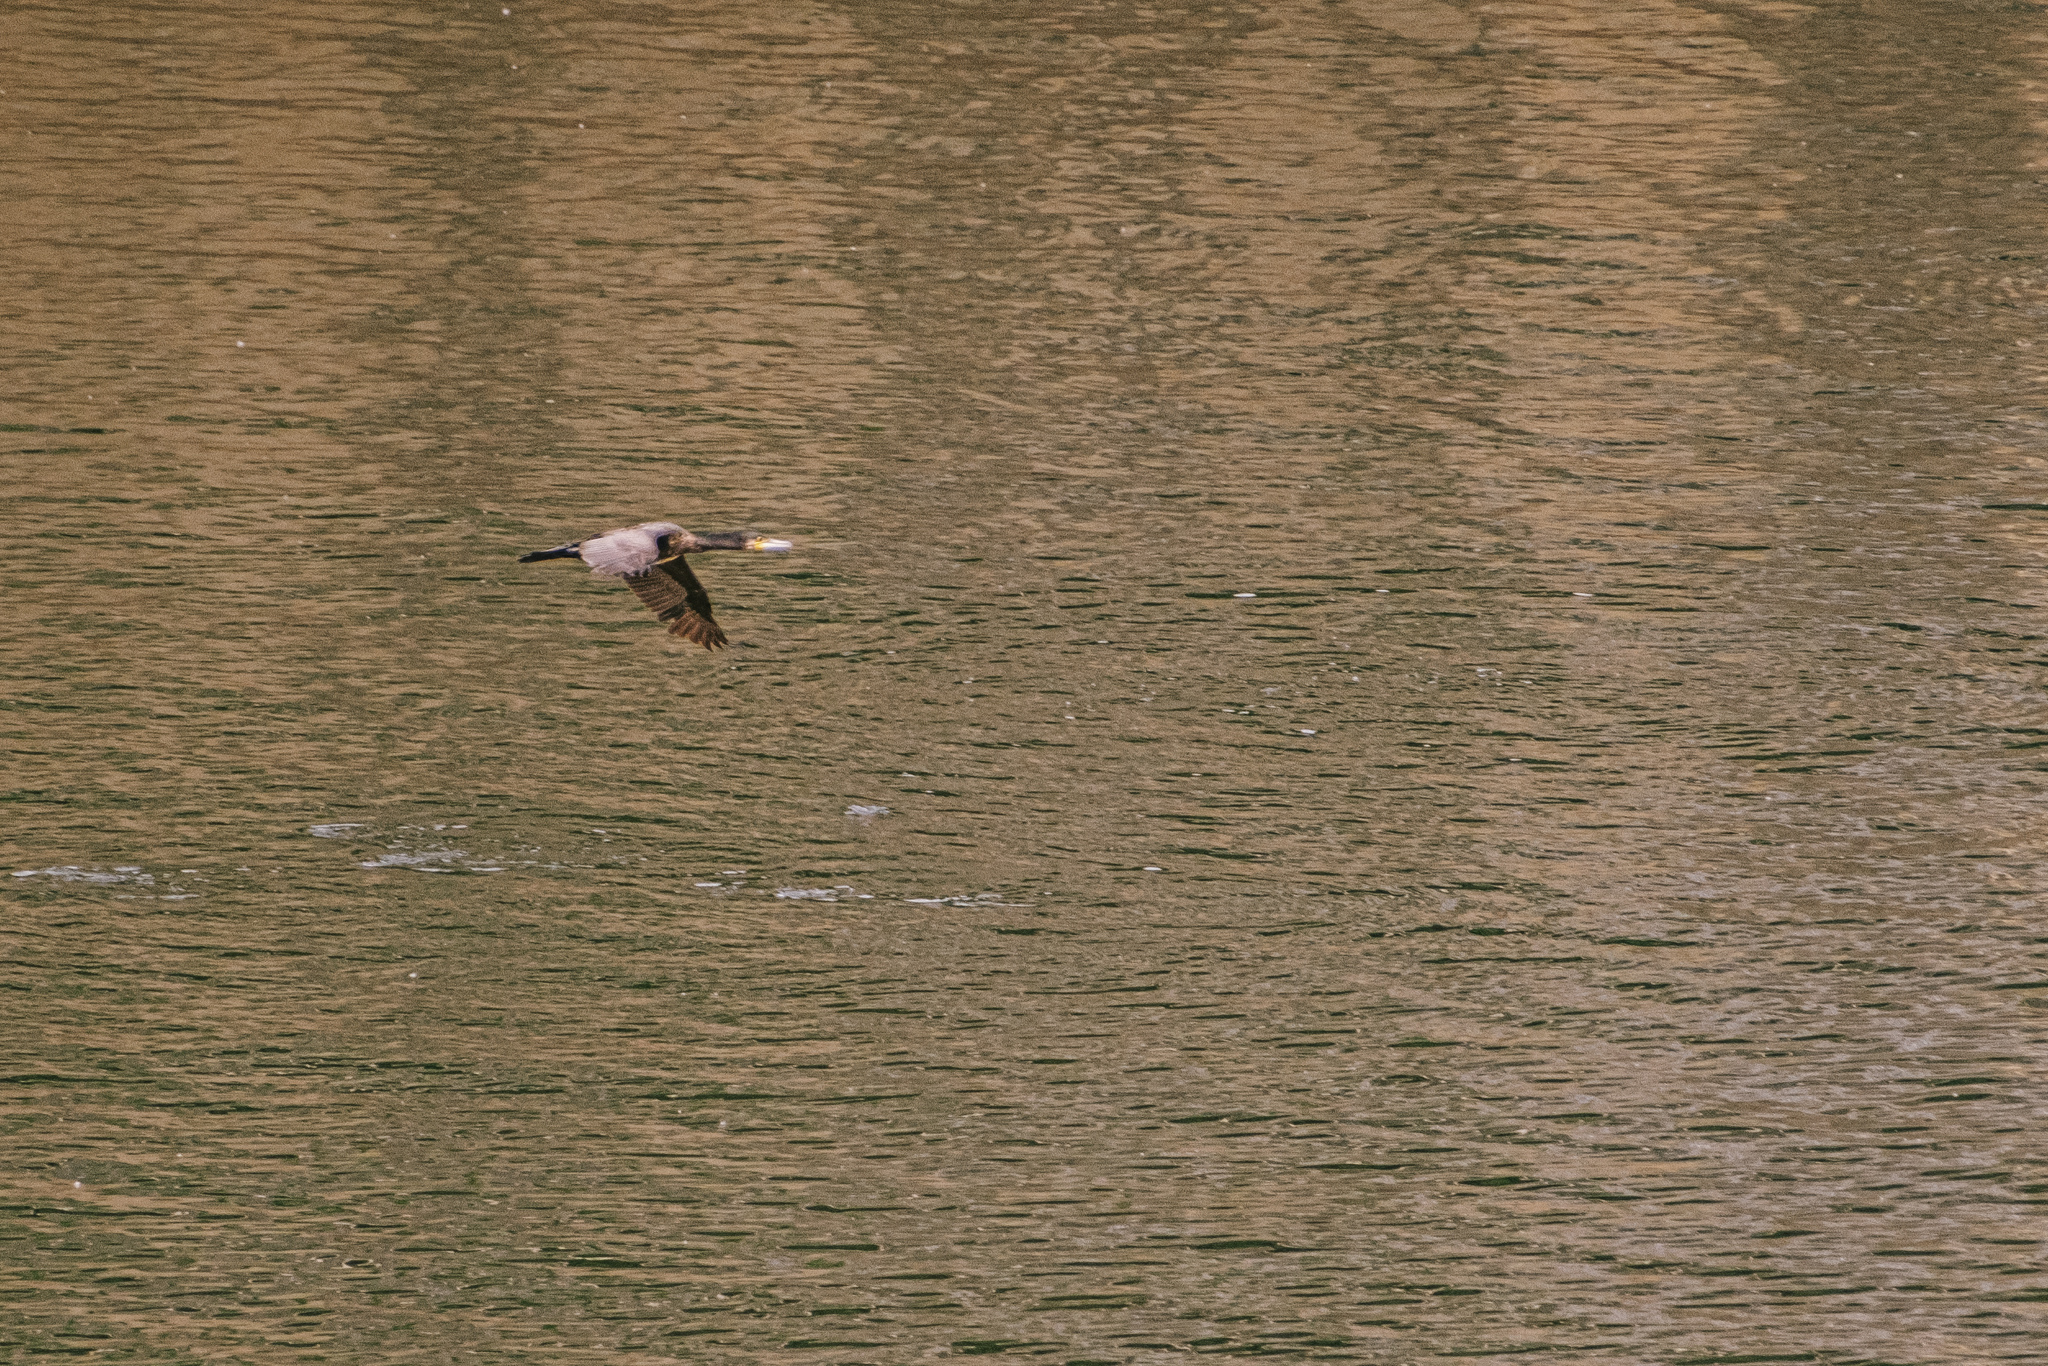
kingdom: Animalia
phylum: Chordata
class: Aves
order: Suliformes
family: Phalacrocoracidae
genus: Phalacrocorax
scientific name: Phalacrocorax carbo
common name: Great cormorant
